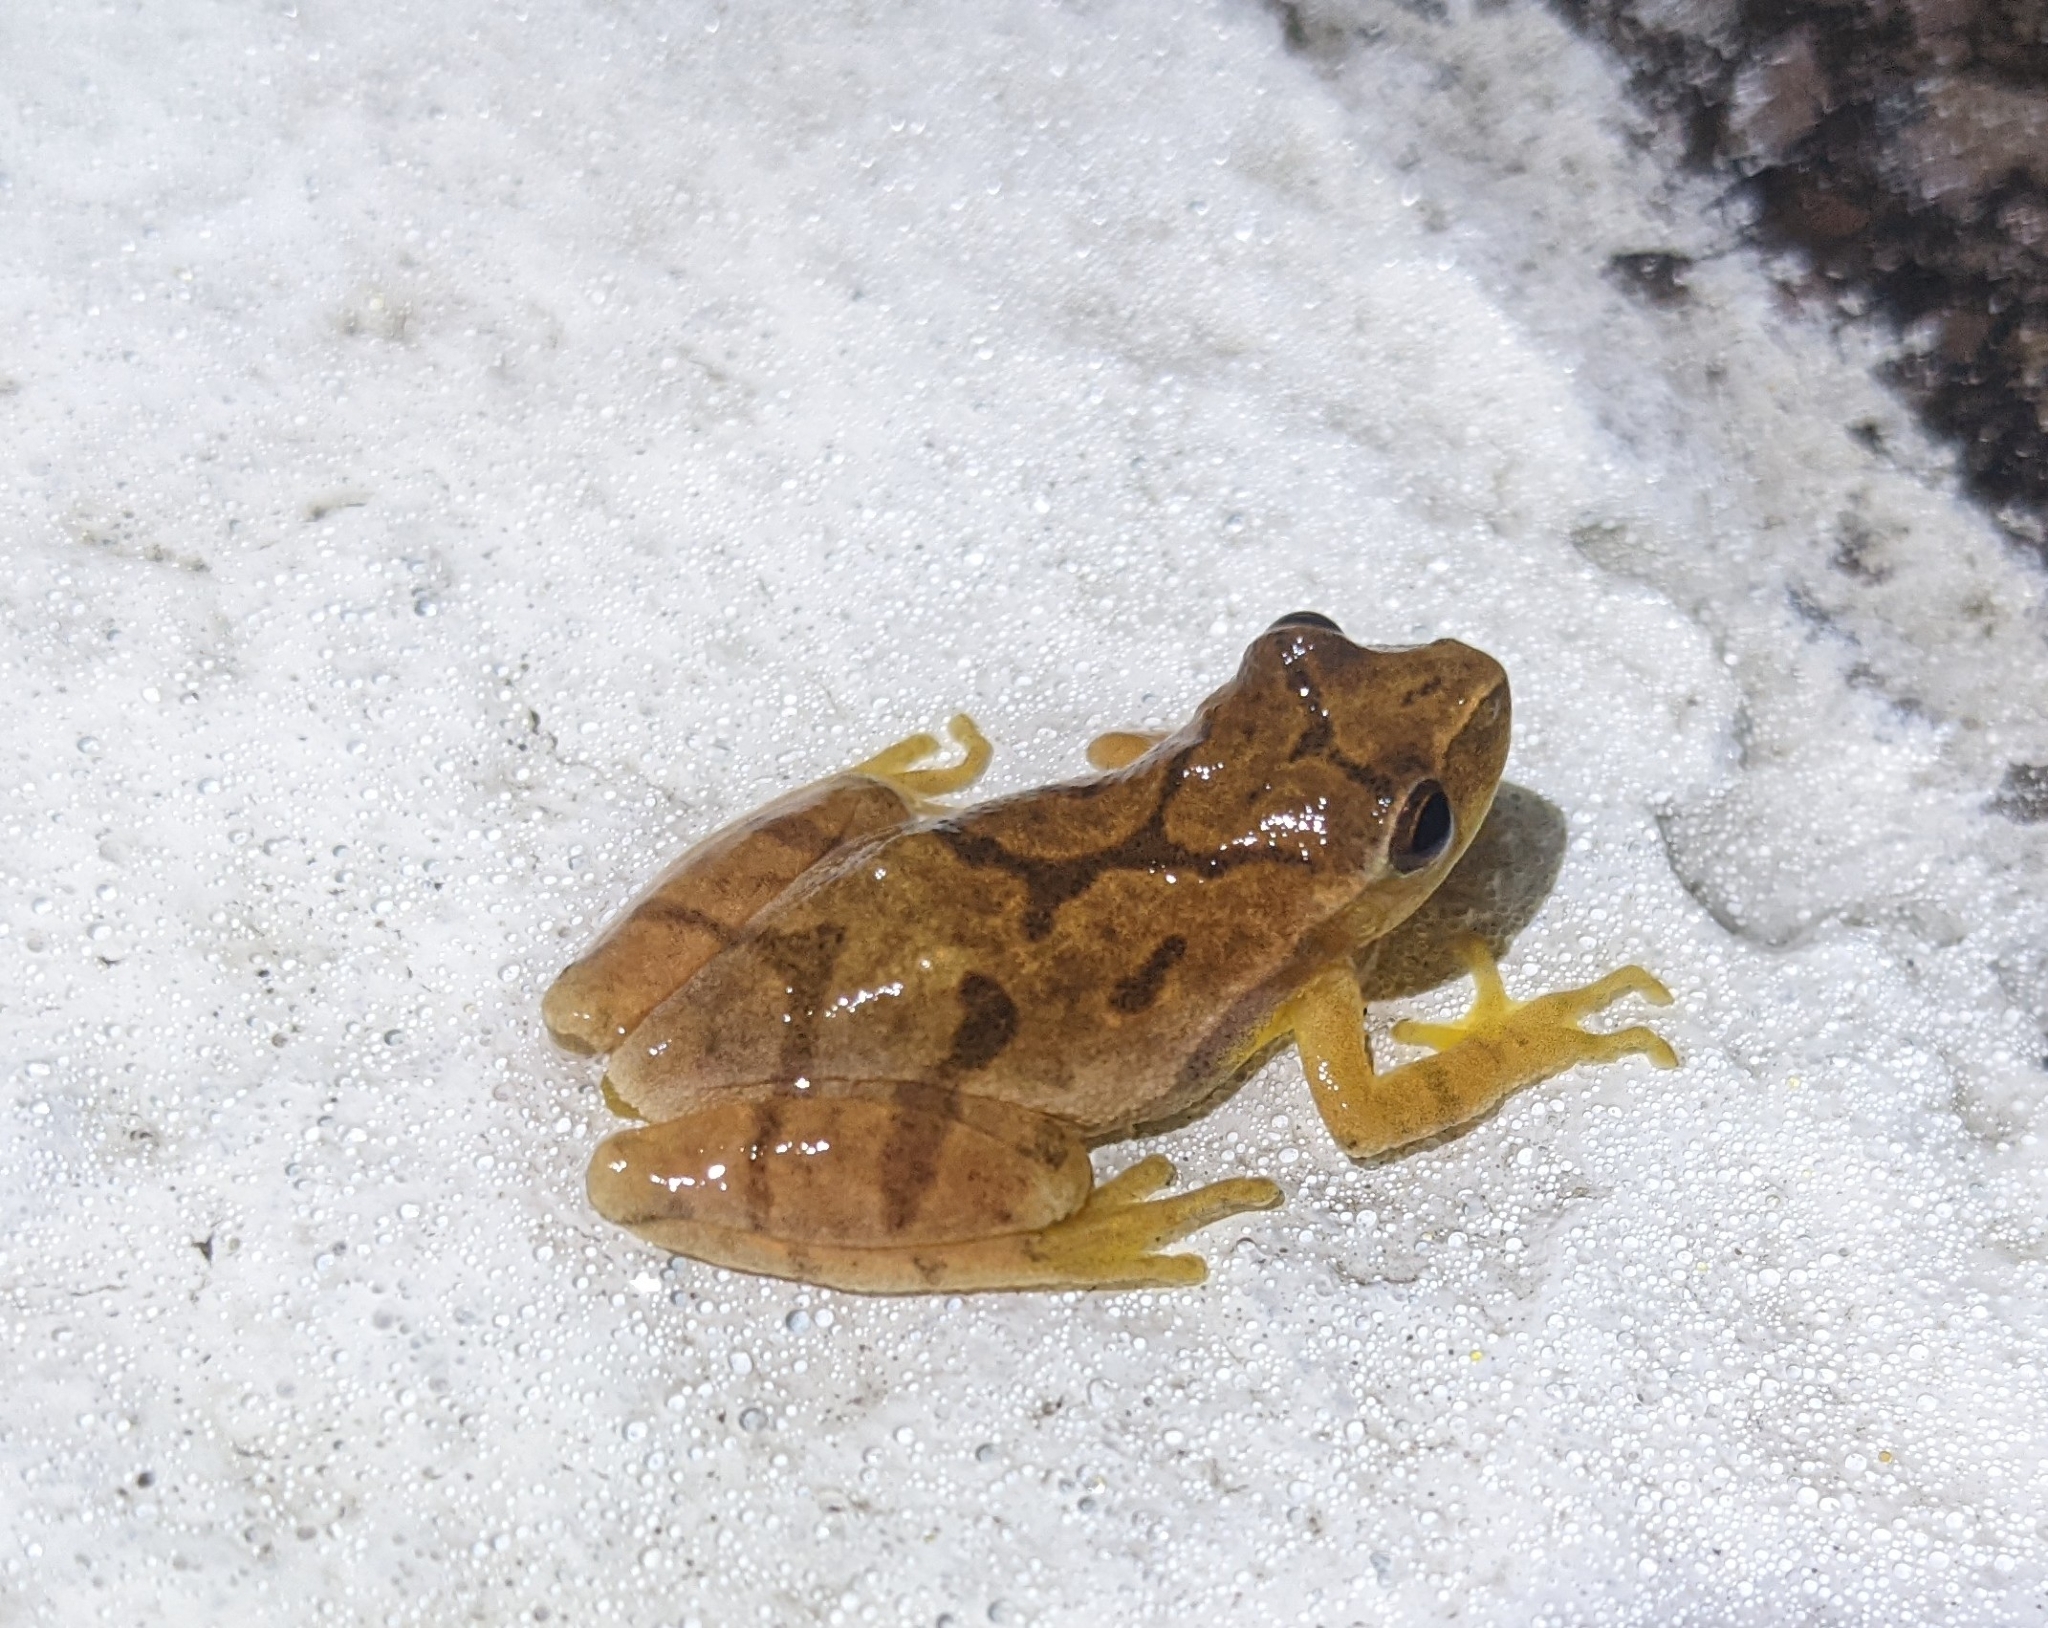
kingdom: Animalia
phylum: Chordata
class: Amphibia
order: Anura
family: Hylidae
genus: Pseudacris
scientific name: Pseudacris crucifer
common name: Spring peeper
